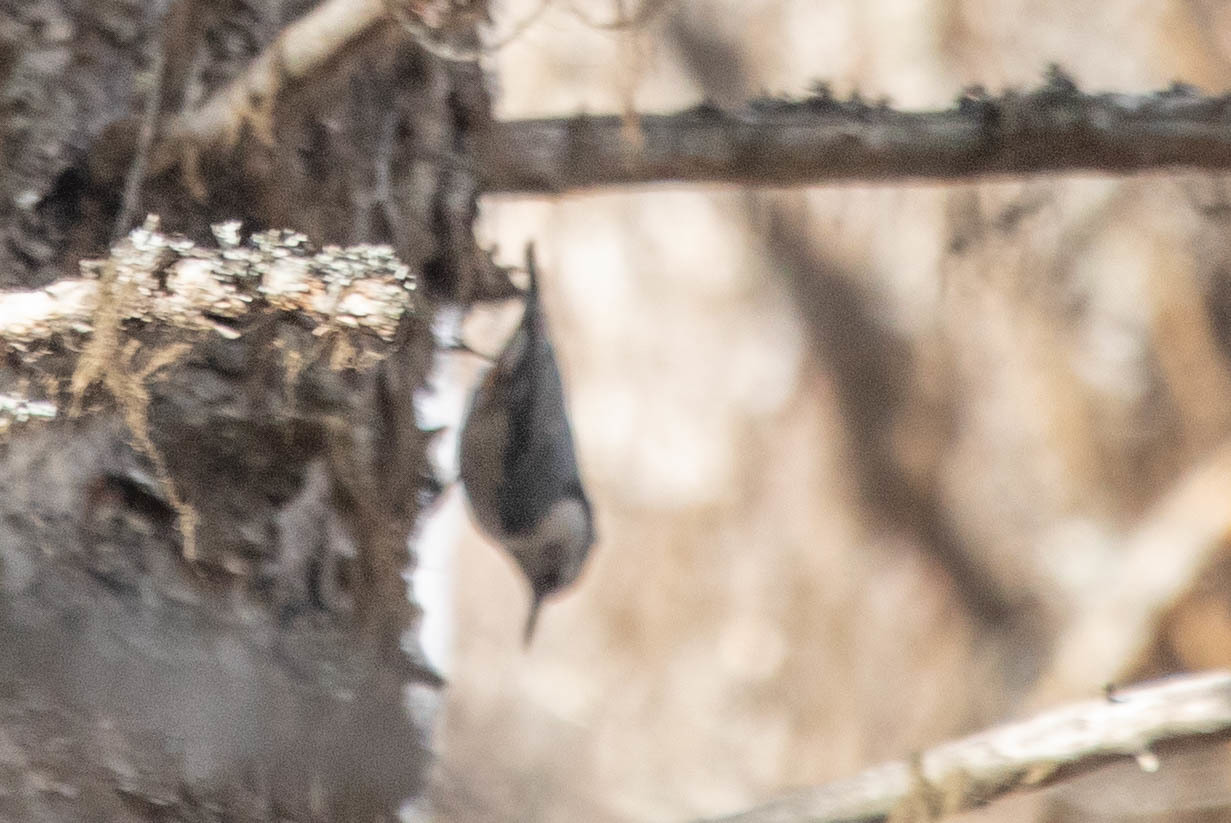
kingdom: Animalia
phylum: Chordata
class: Aves
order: Passeriformes
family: Sittidae
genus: Sitta
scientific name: Sitta carolinensis
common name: White-breasted nuthatch
